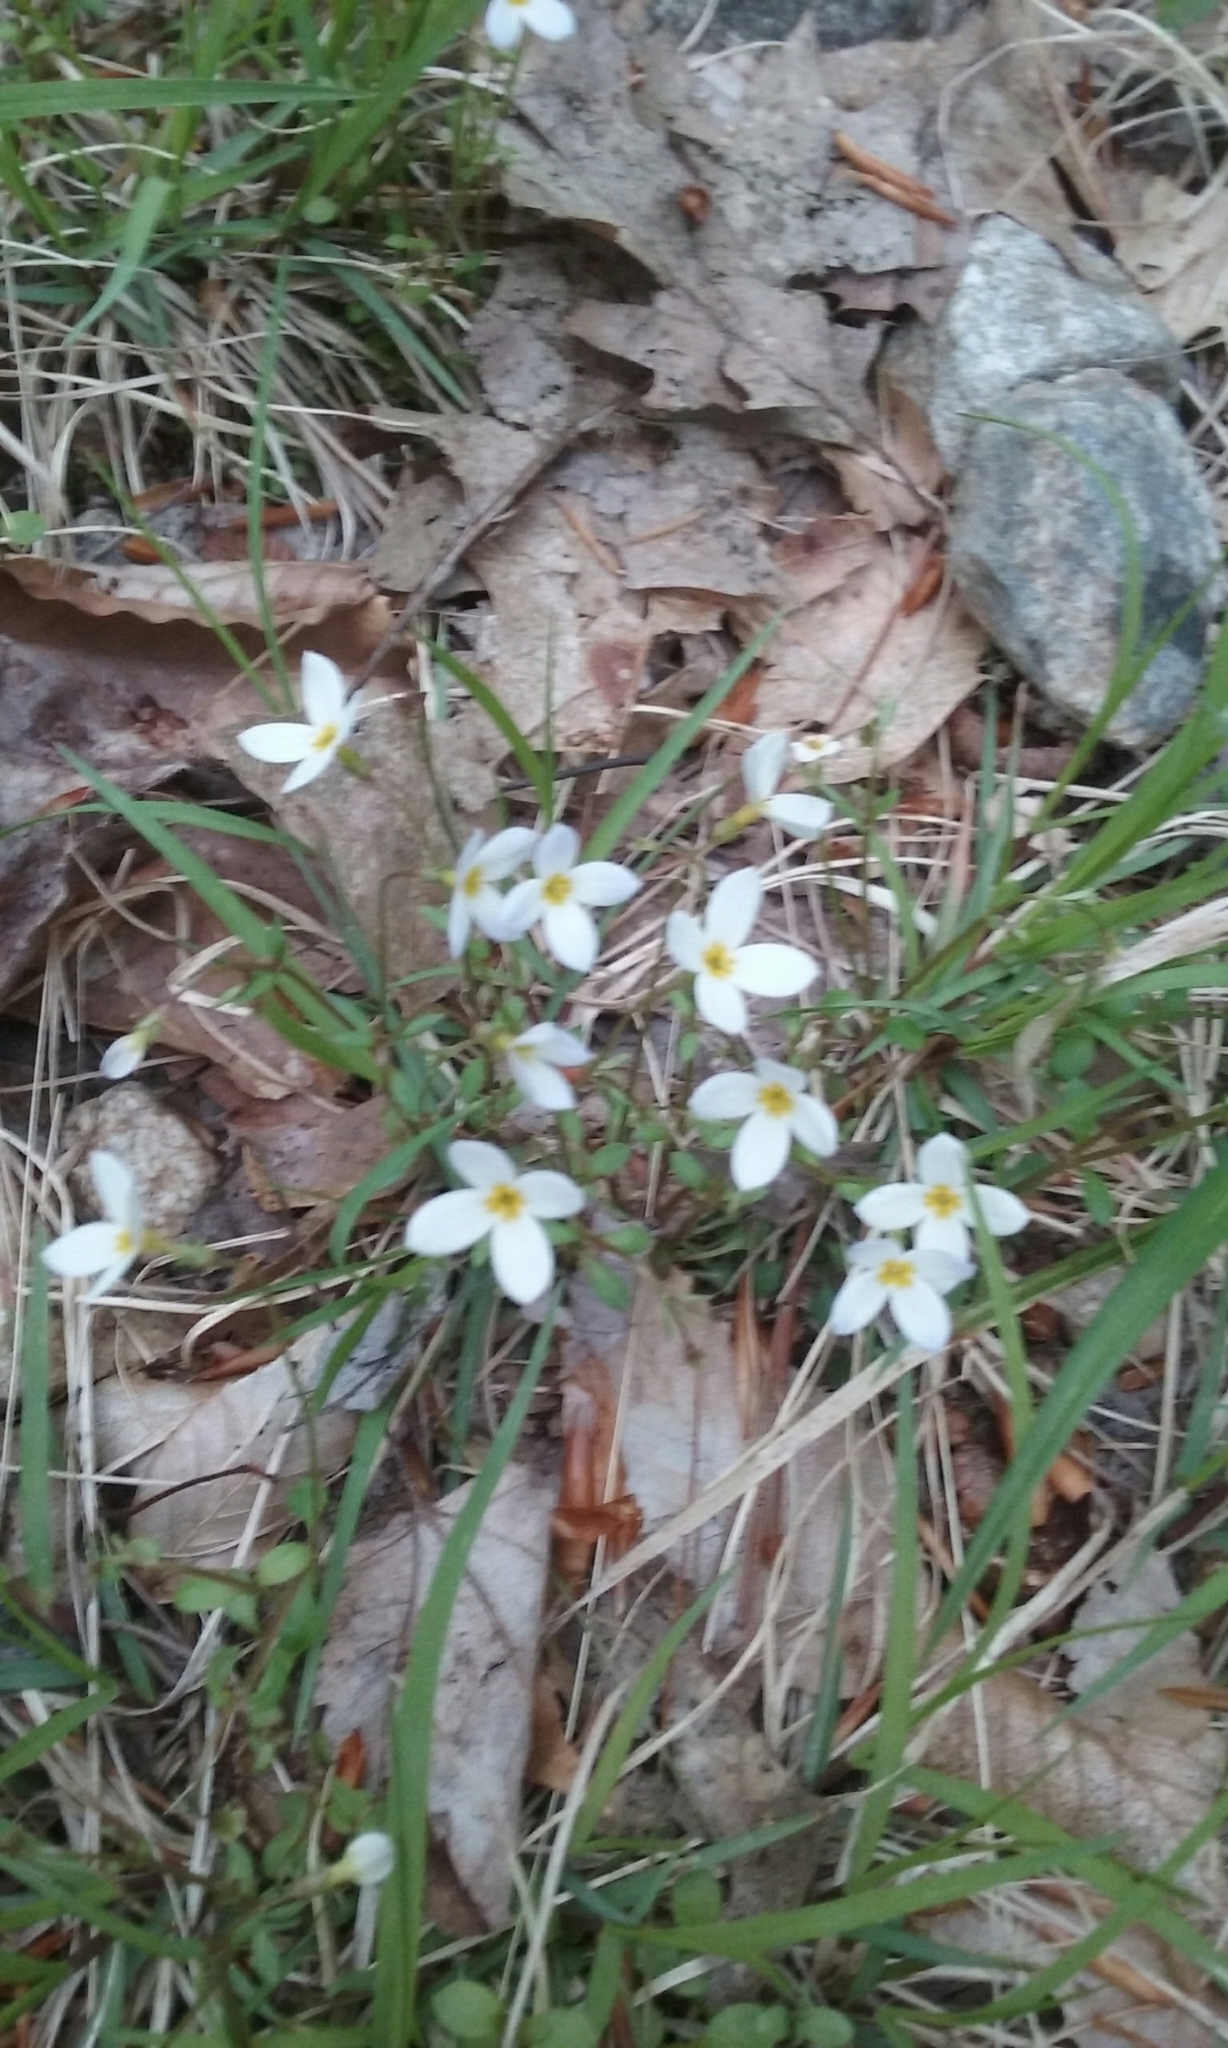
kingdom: Plantae
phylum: Tracheophyta
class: Magnoliopsida
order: Gentianales
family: Rubiaceae
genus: Houstonia
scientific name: Houstonia caerulea
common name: Bluets
